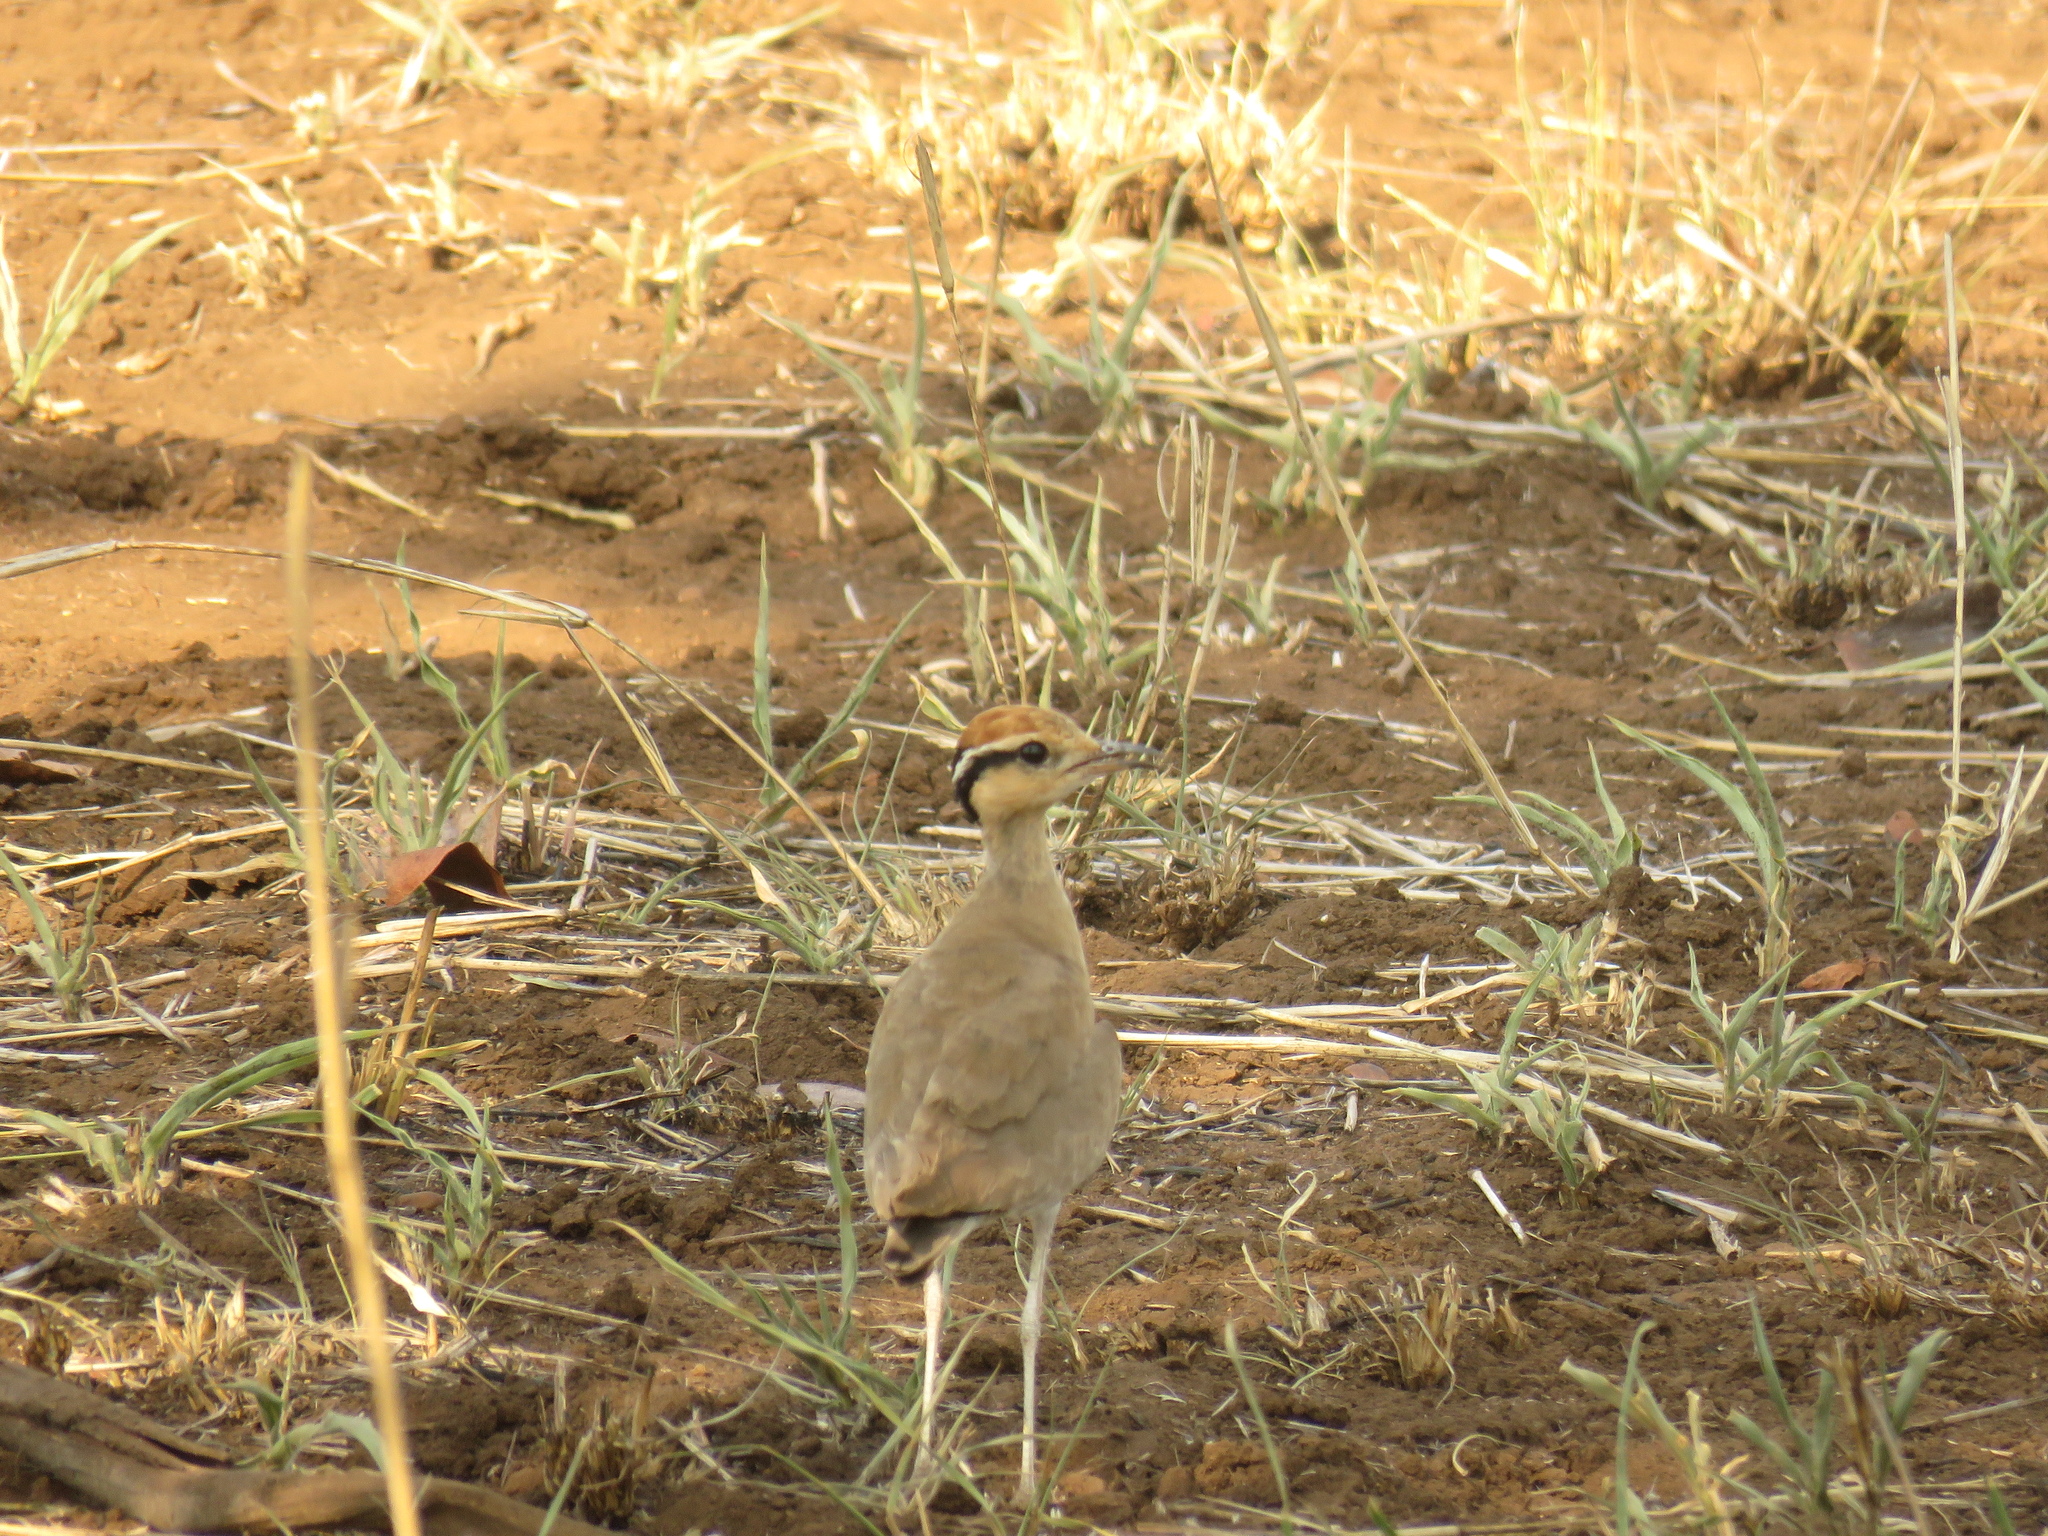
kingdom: Animalia
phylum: Chordata
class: Aves
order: Charadriiformes
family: Glareolidae
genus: Cursorius
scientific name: Cursorius temminckii
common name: Temminck's courser
